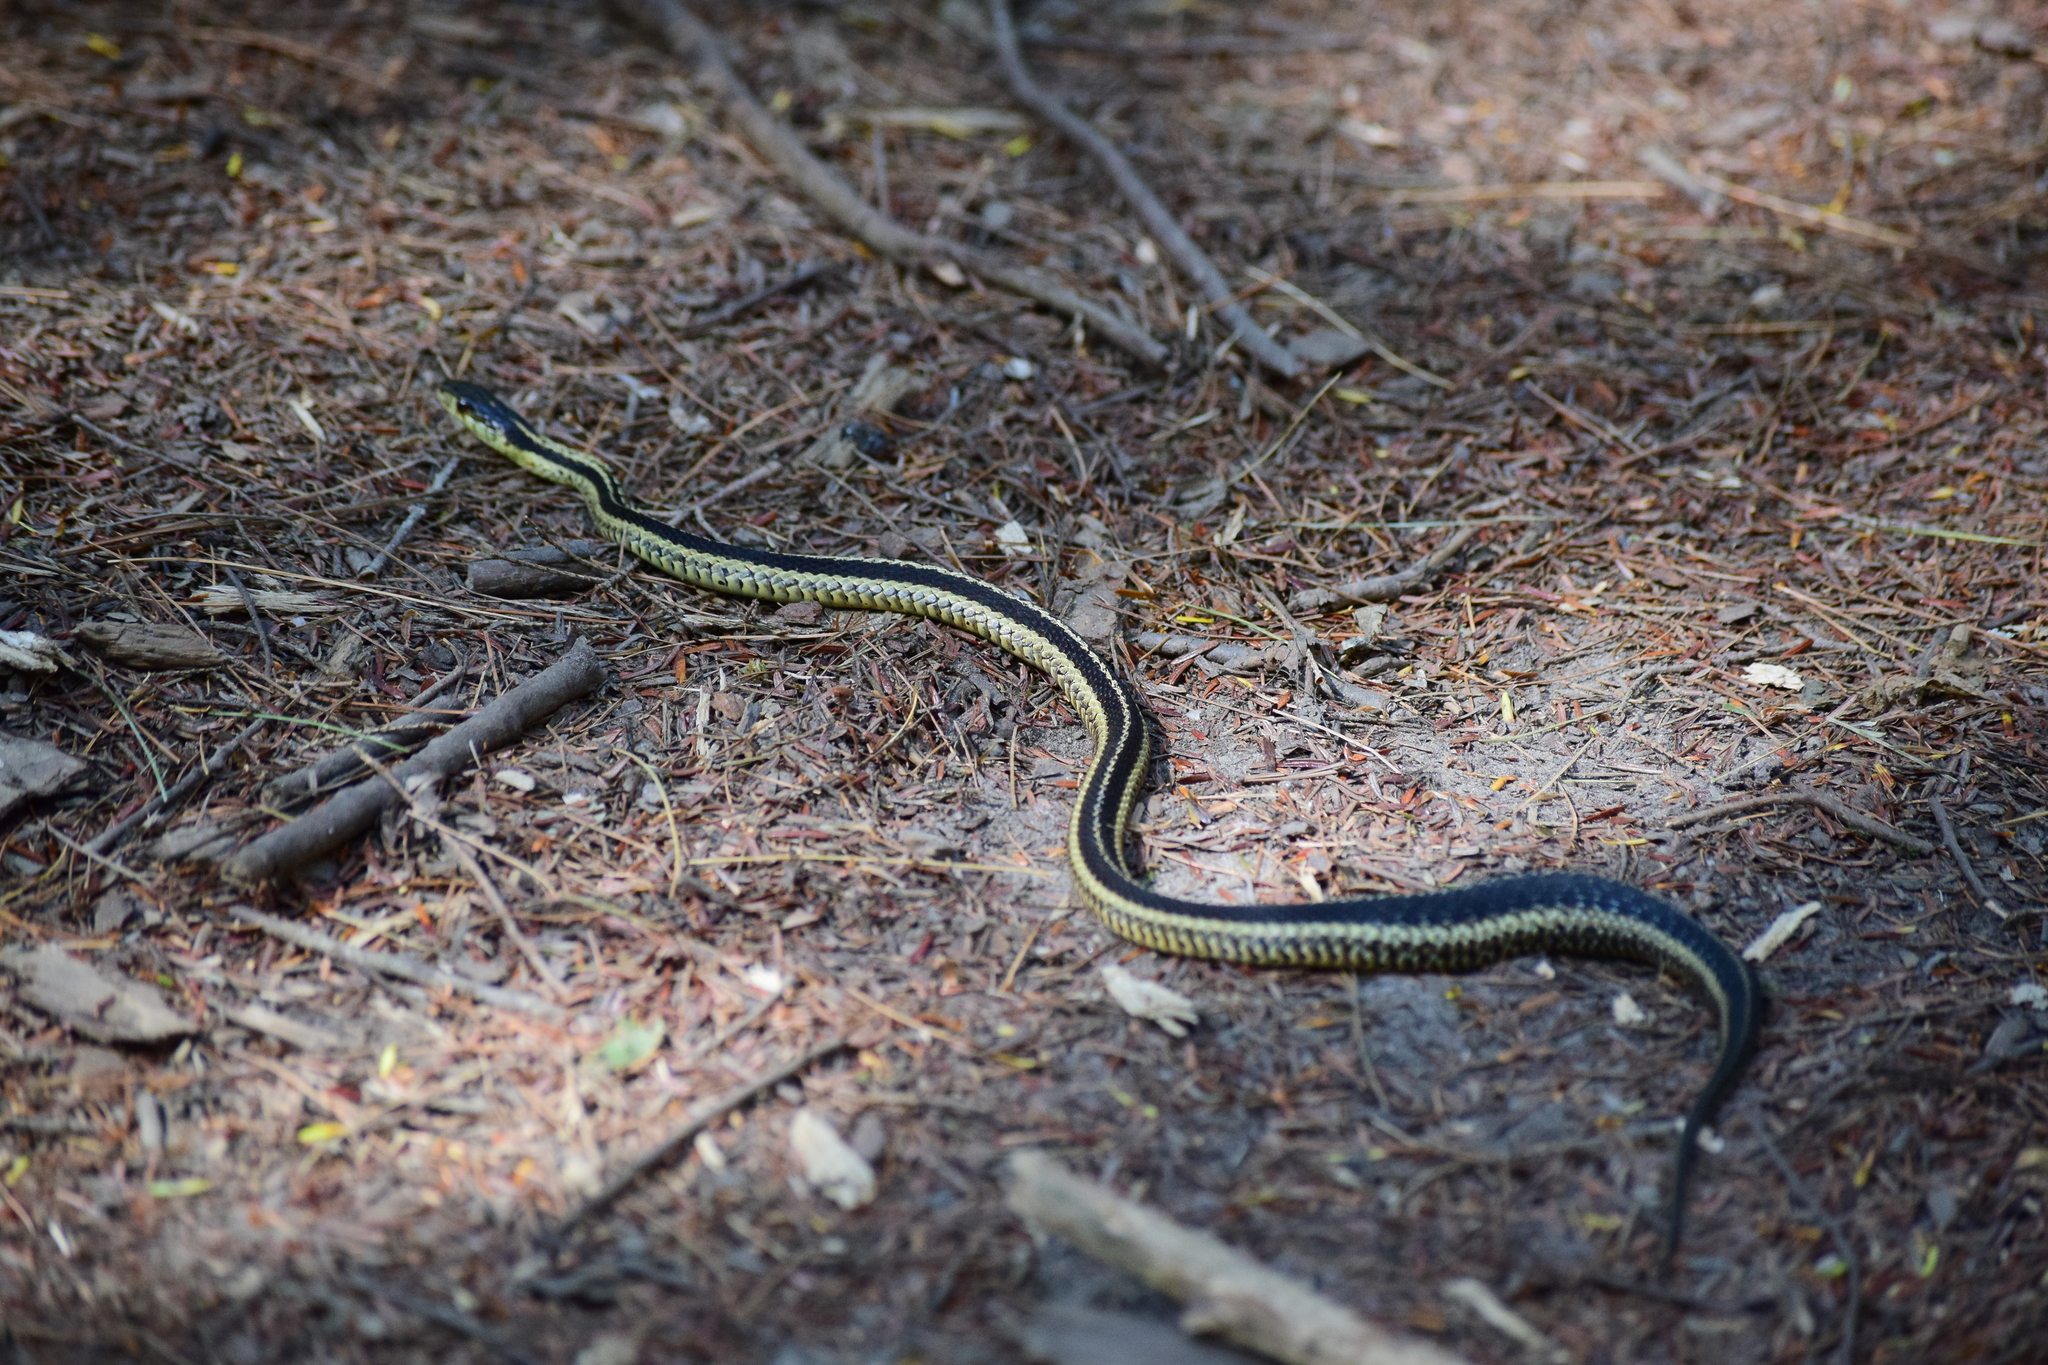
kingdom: Animalia
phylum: Chordata
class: Squamata
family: Colubridae
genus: Thamnophis
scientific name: Thamnophis sirtalis
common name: Common garter snake
